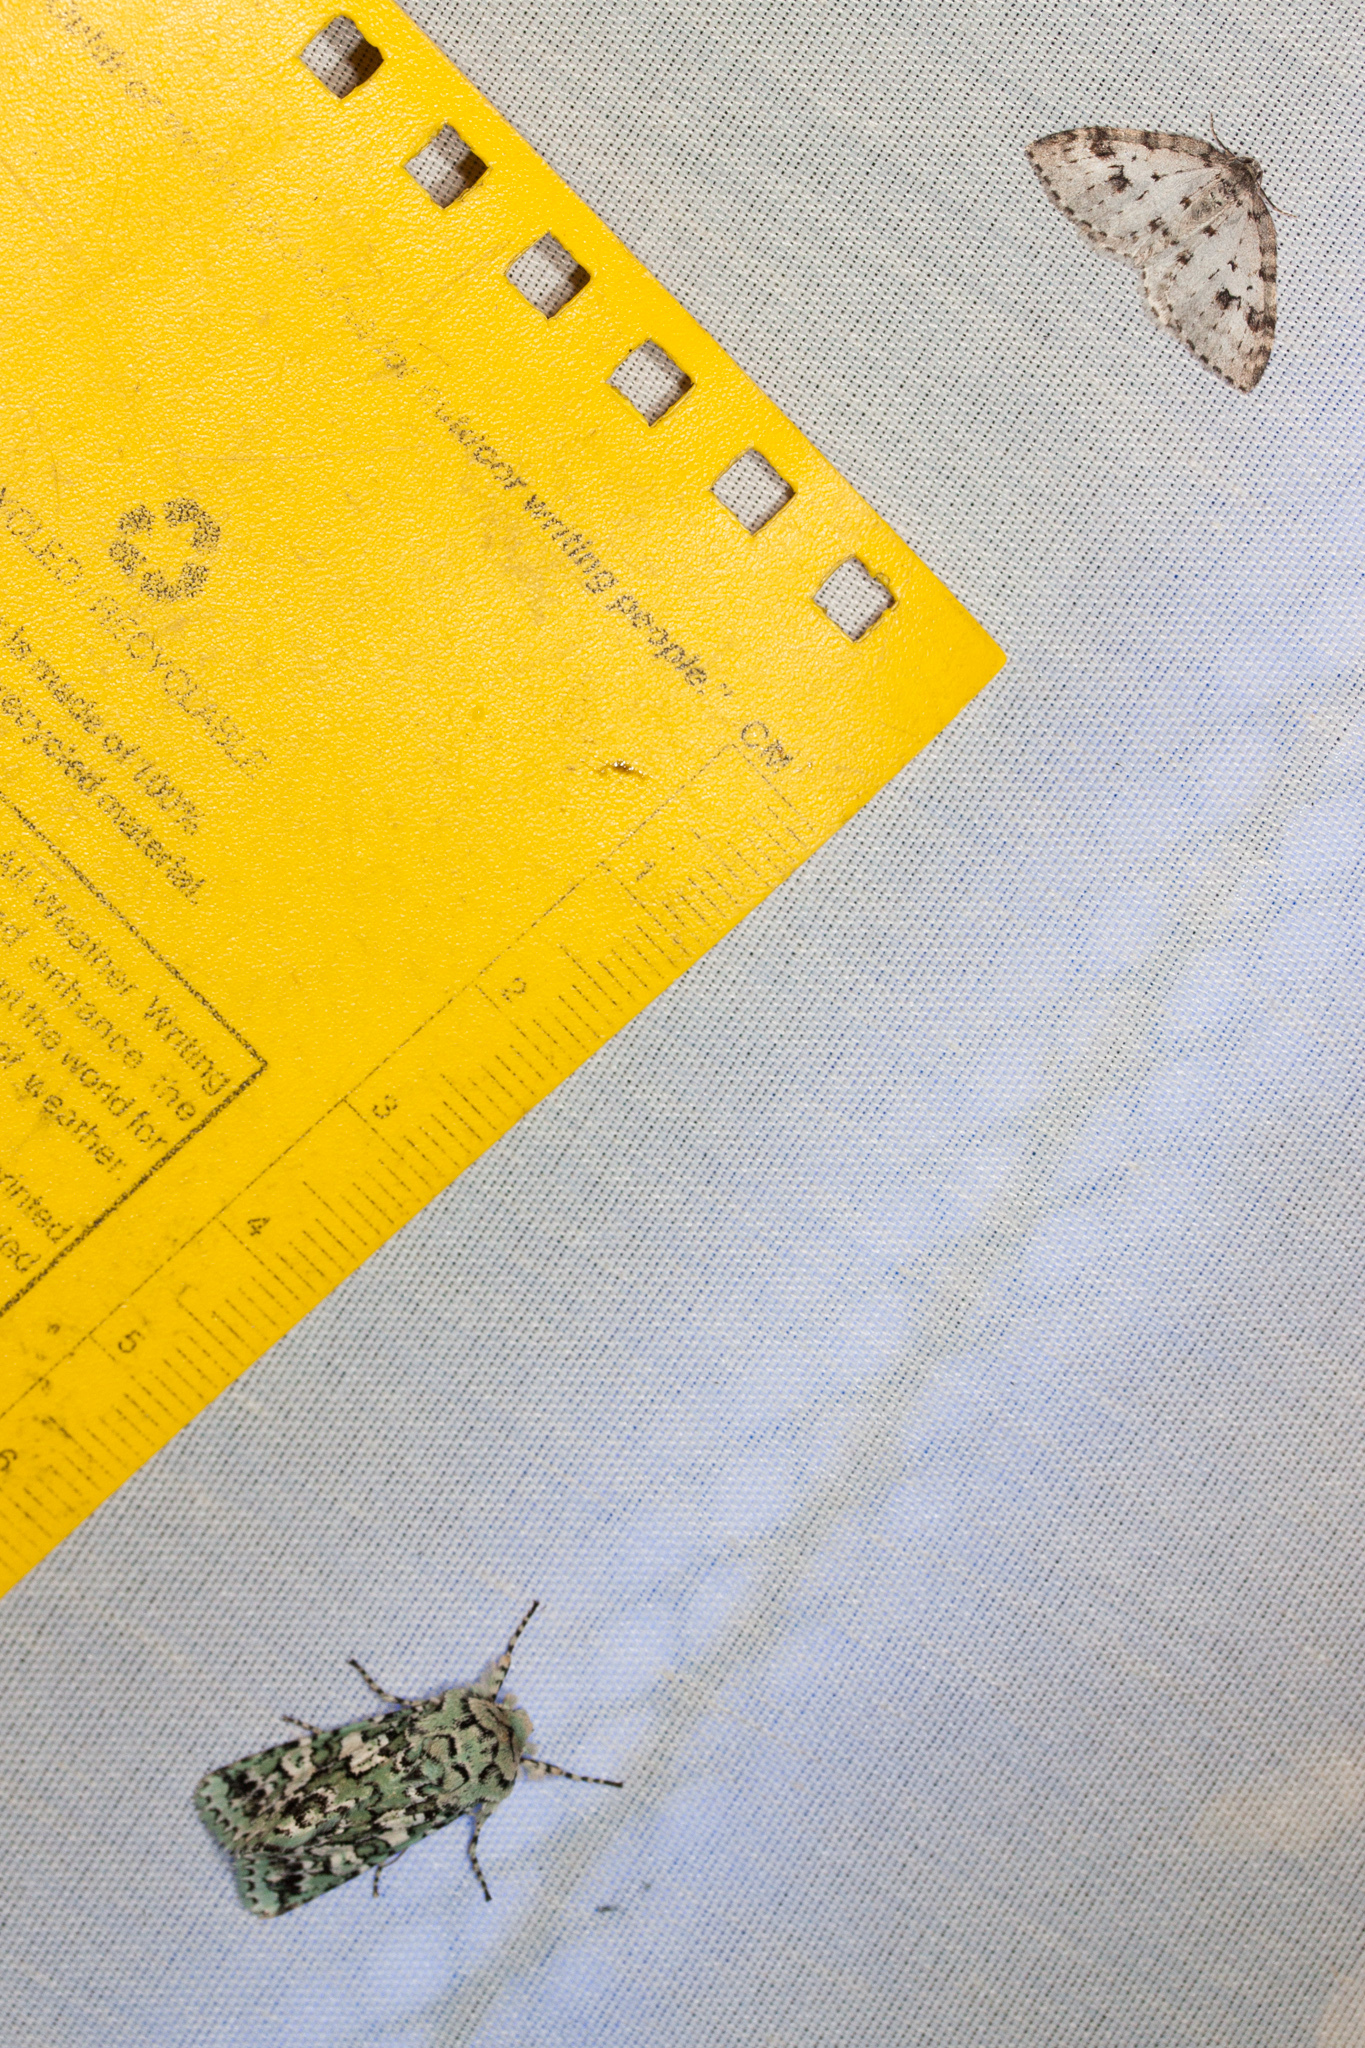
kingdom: Animalia
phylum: Arthropoda
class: Insecta
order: Lepidoptera
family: Noctuidae
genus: Feralia
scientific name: Feralia februalis
